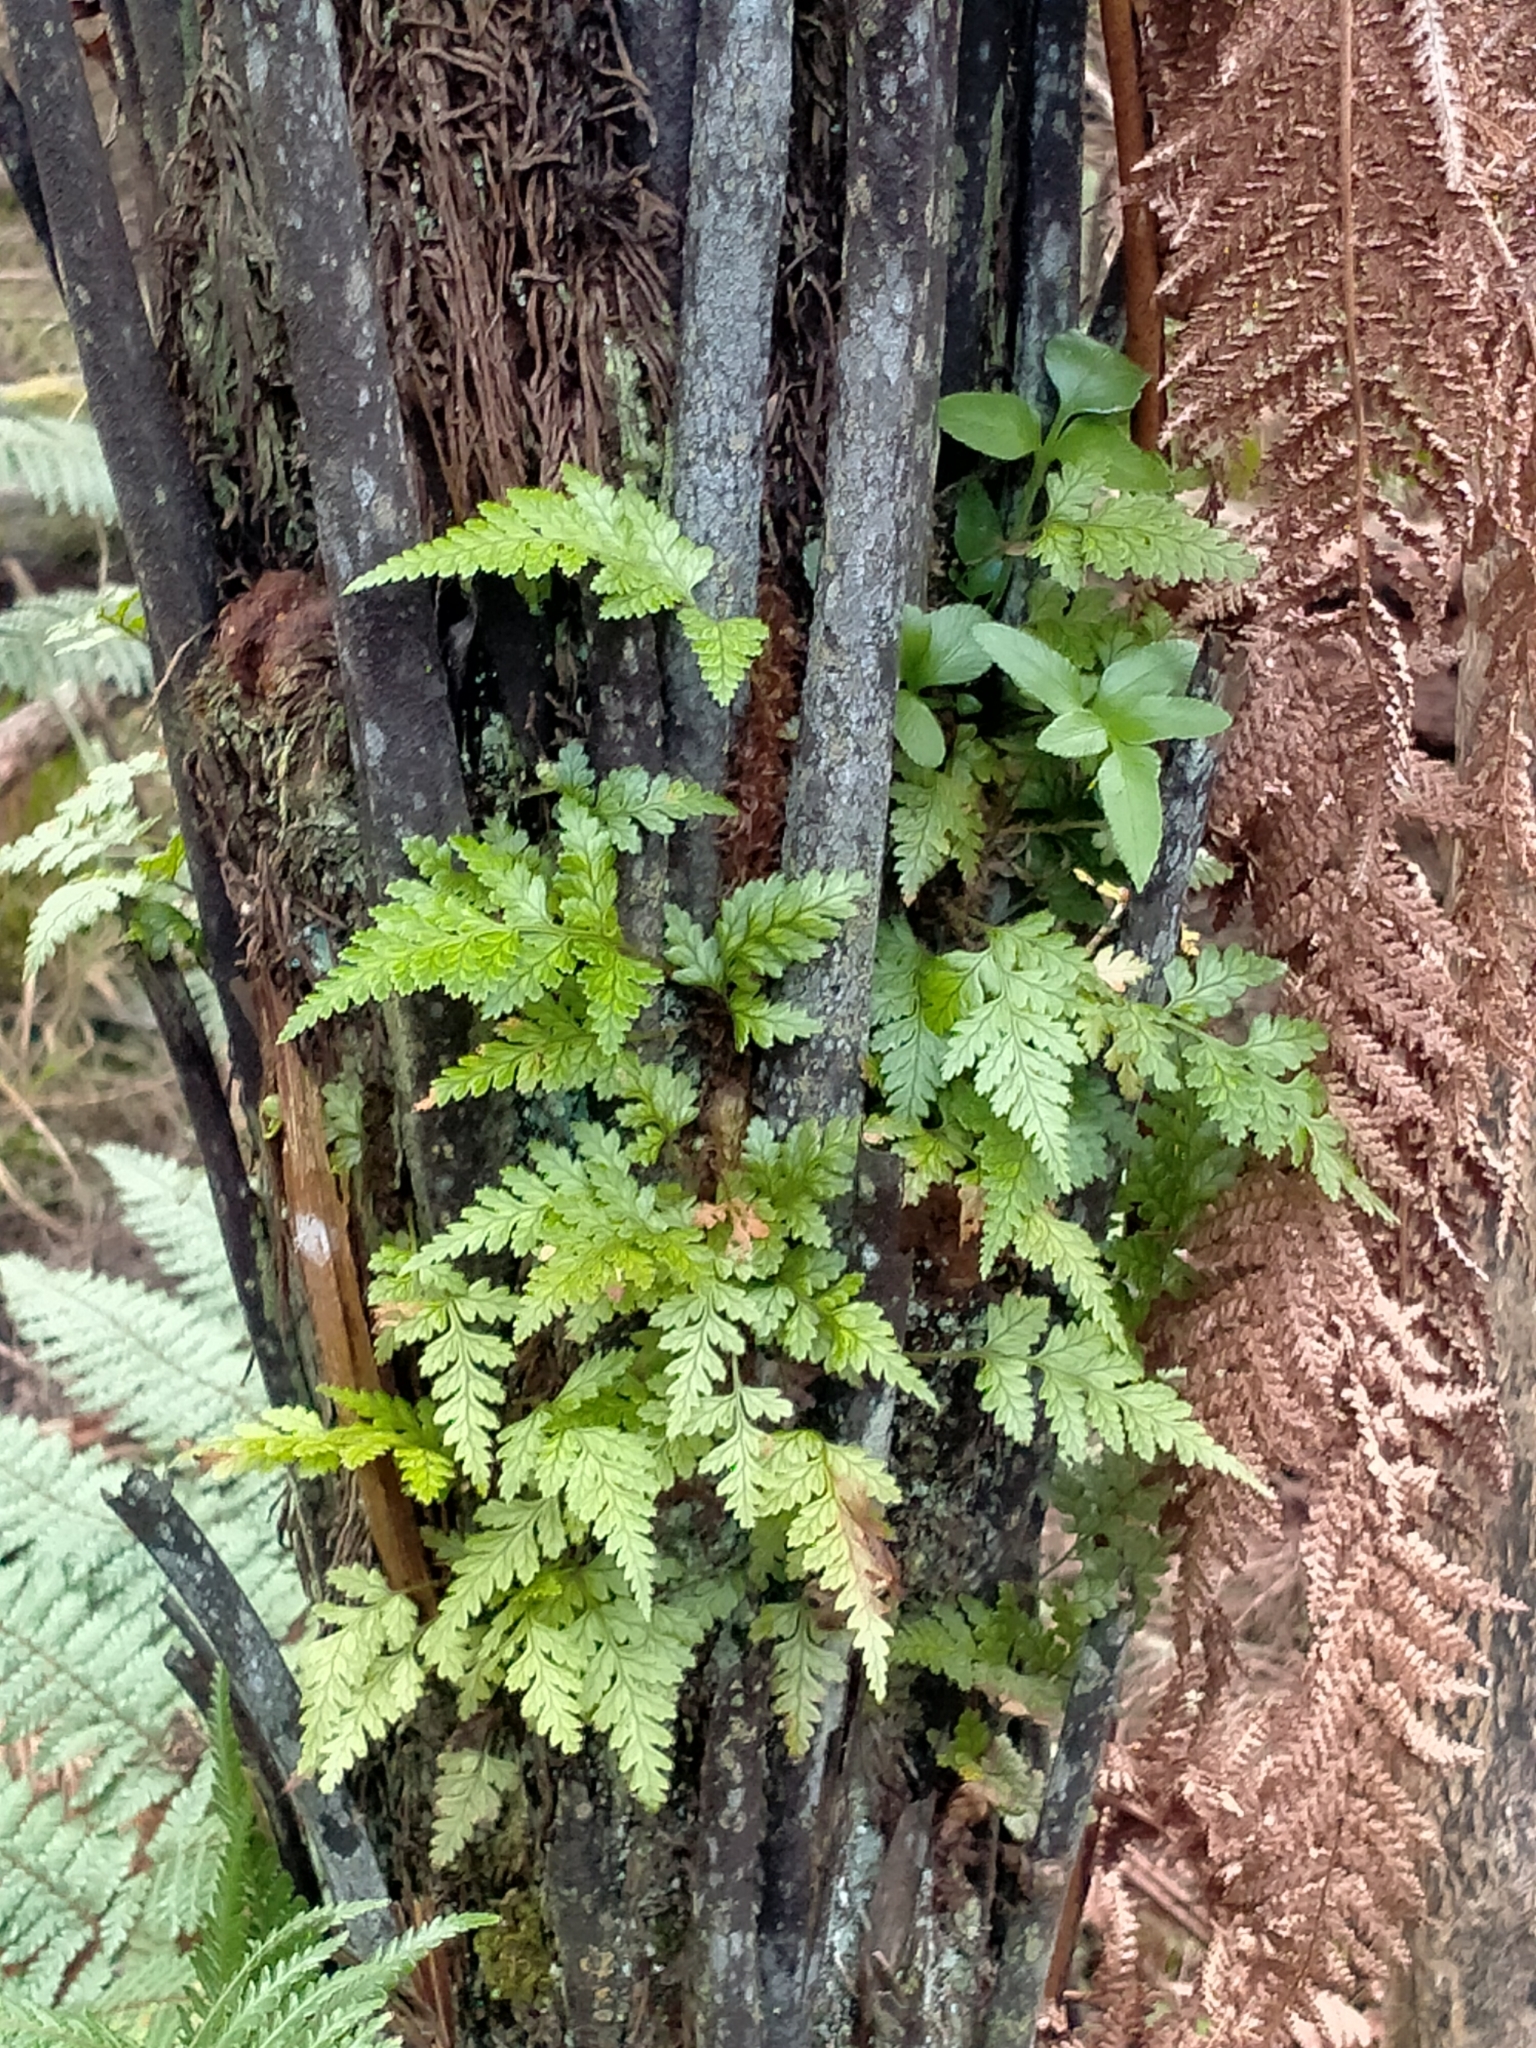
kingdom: Plantae
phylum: Tracheophyta
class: Polypodiopsida
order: Polypodiales
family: Dryopteridaceae
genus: Rumohra
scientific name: Rumohra adiantiformis
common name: Leather fern
